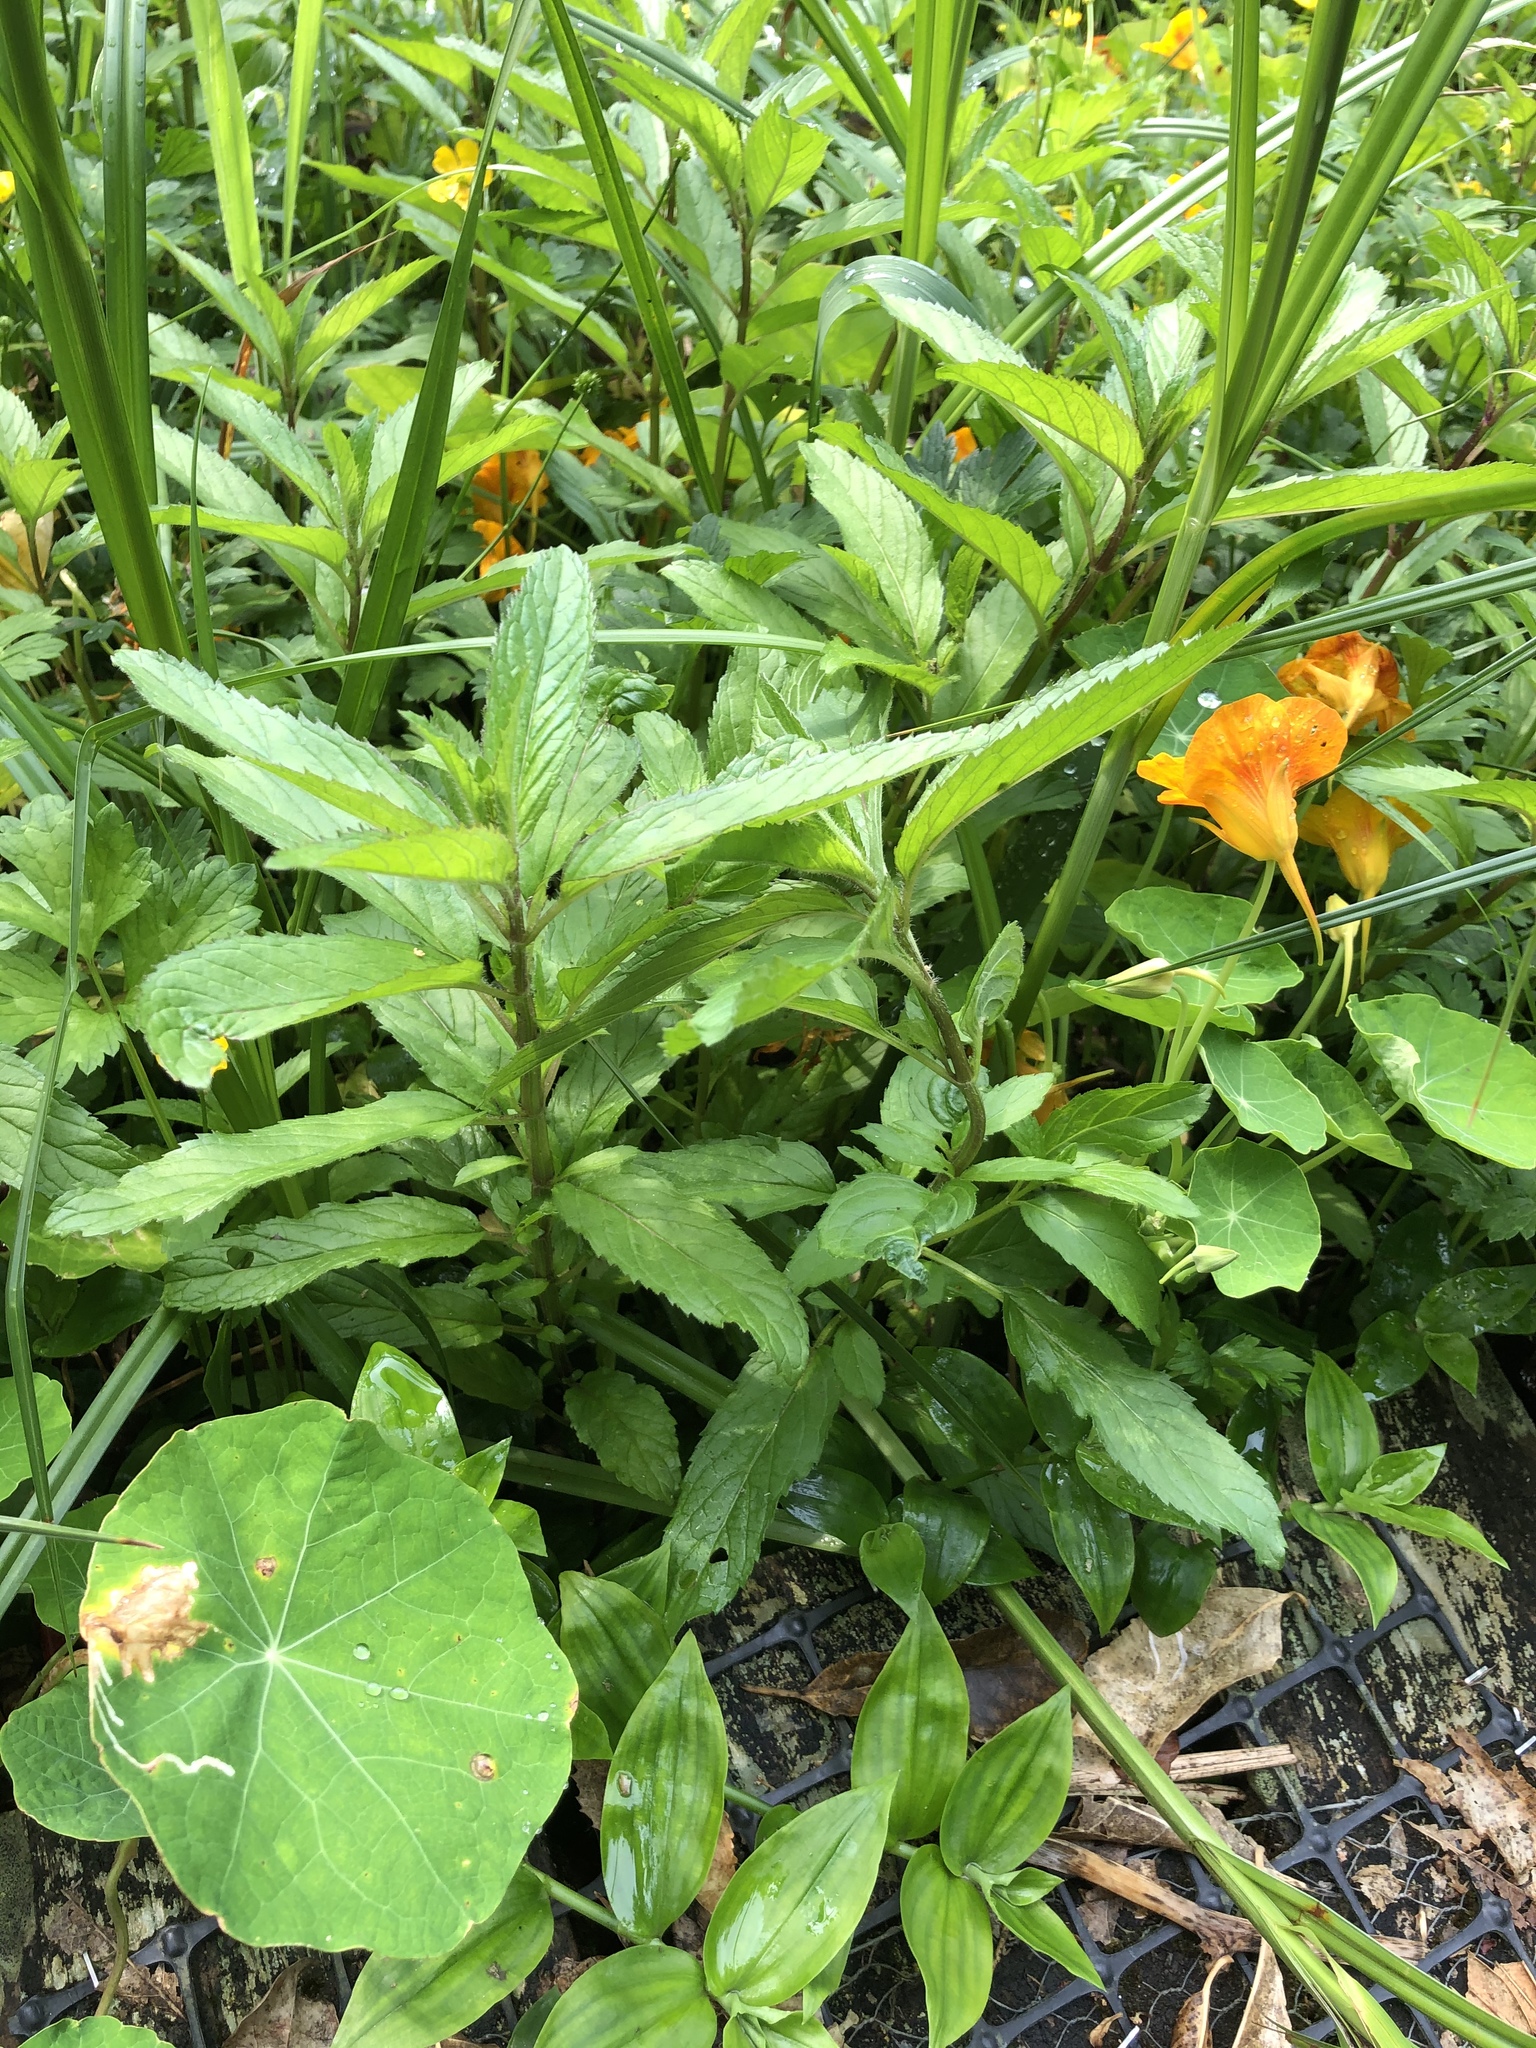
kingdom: Plantae
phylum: Tracheophyta
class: Magnoliopsida
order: Lamiales
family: Lamiaceae
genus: Mentha
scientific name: Mentha spicata
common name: Spearmint
